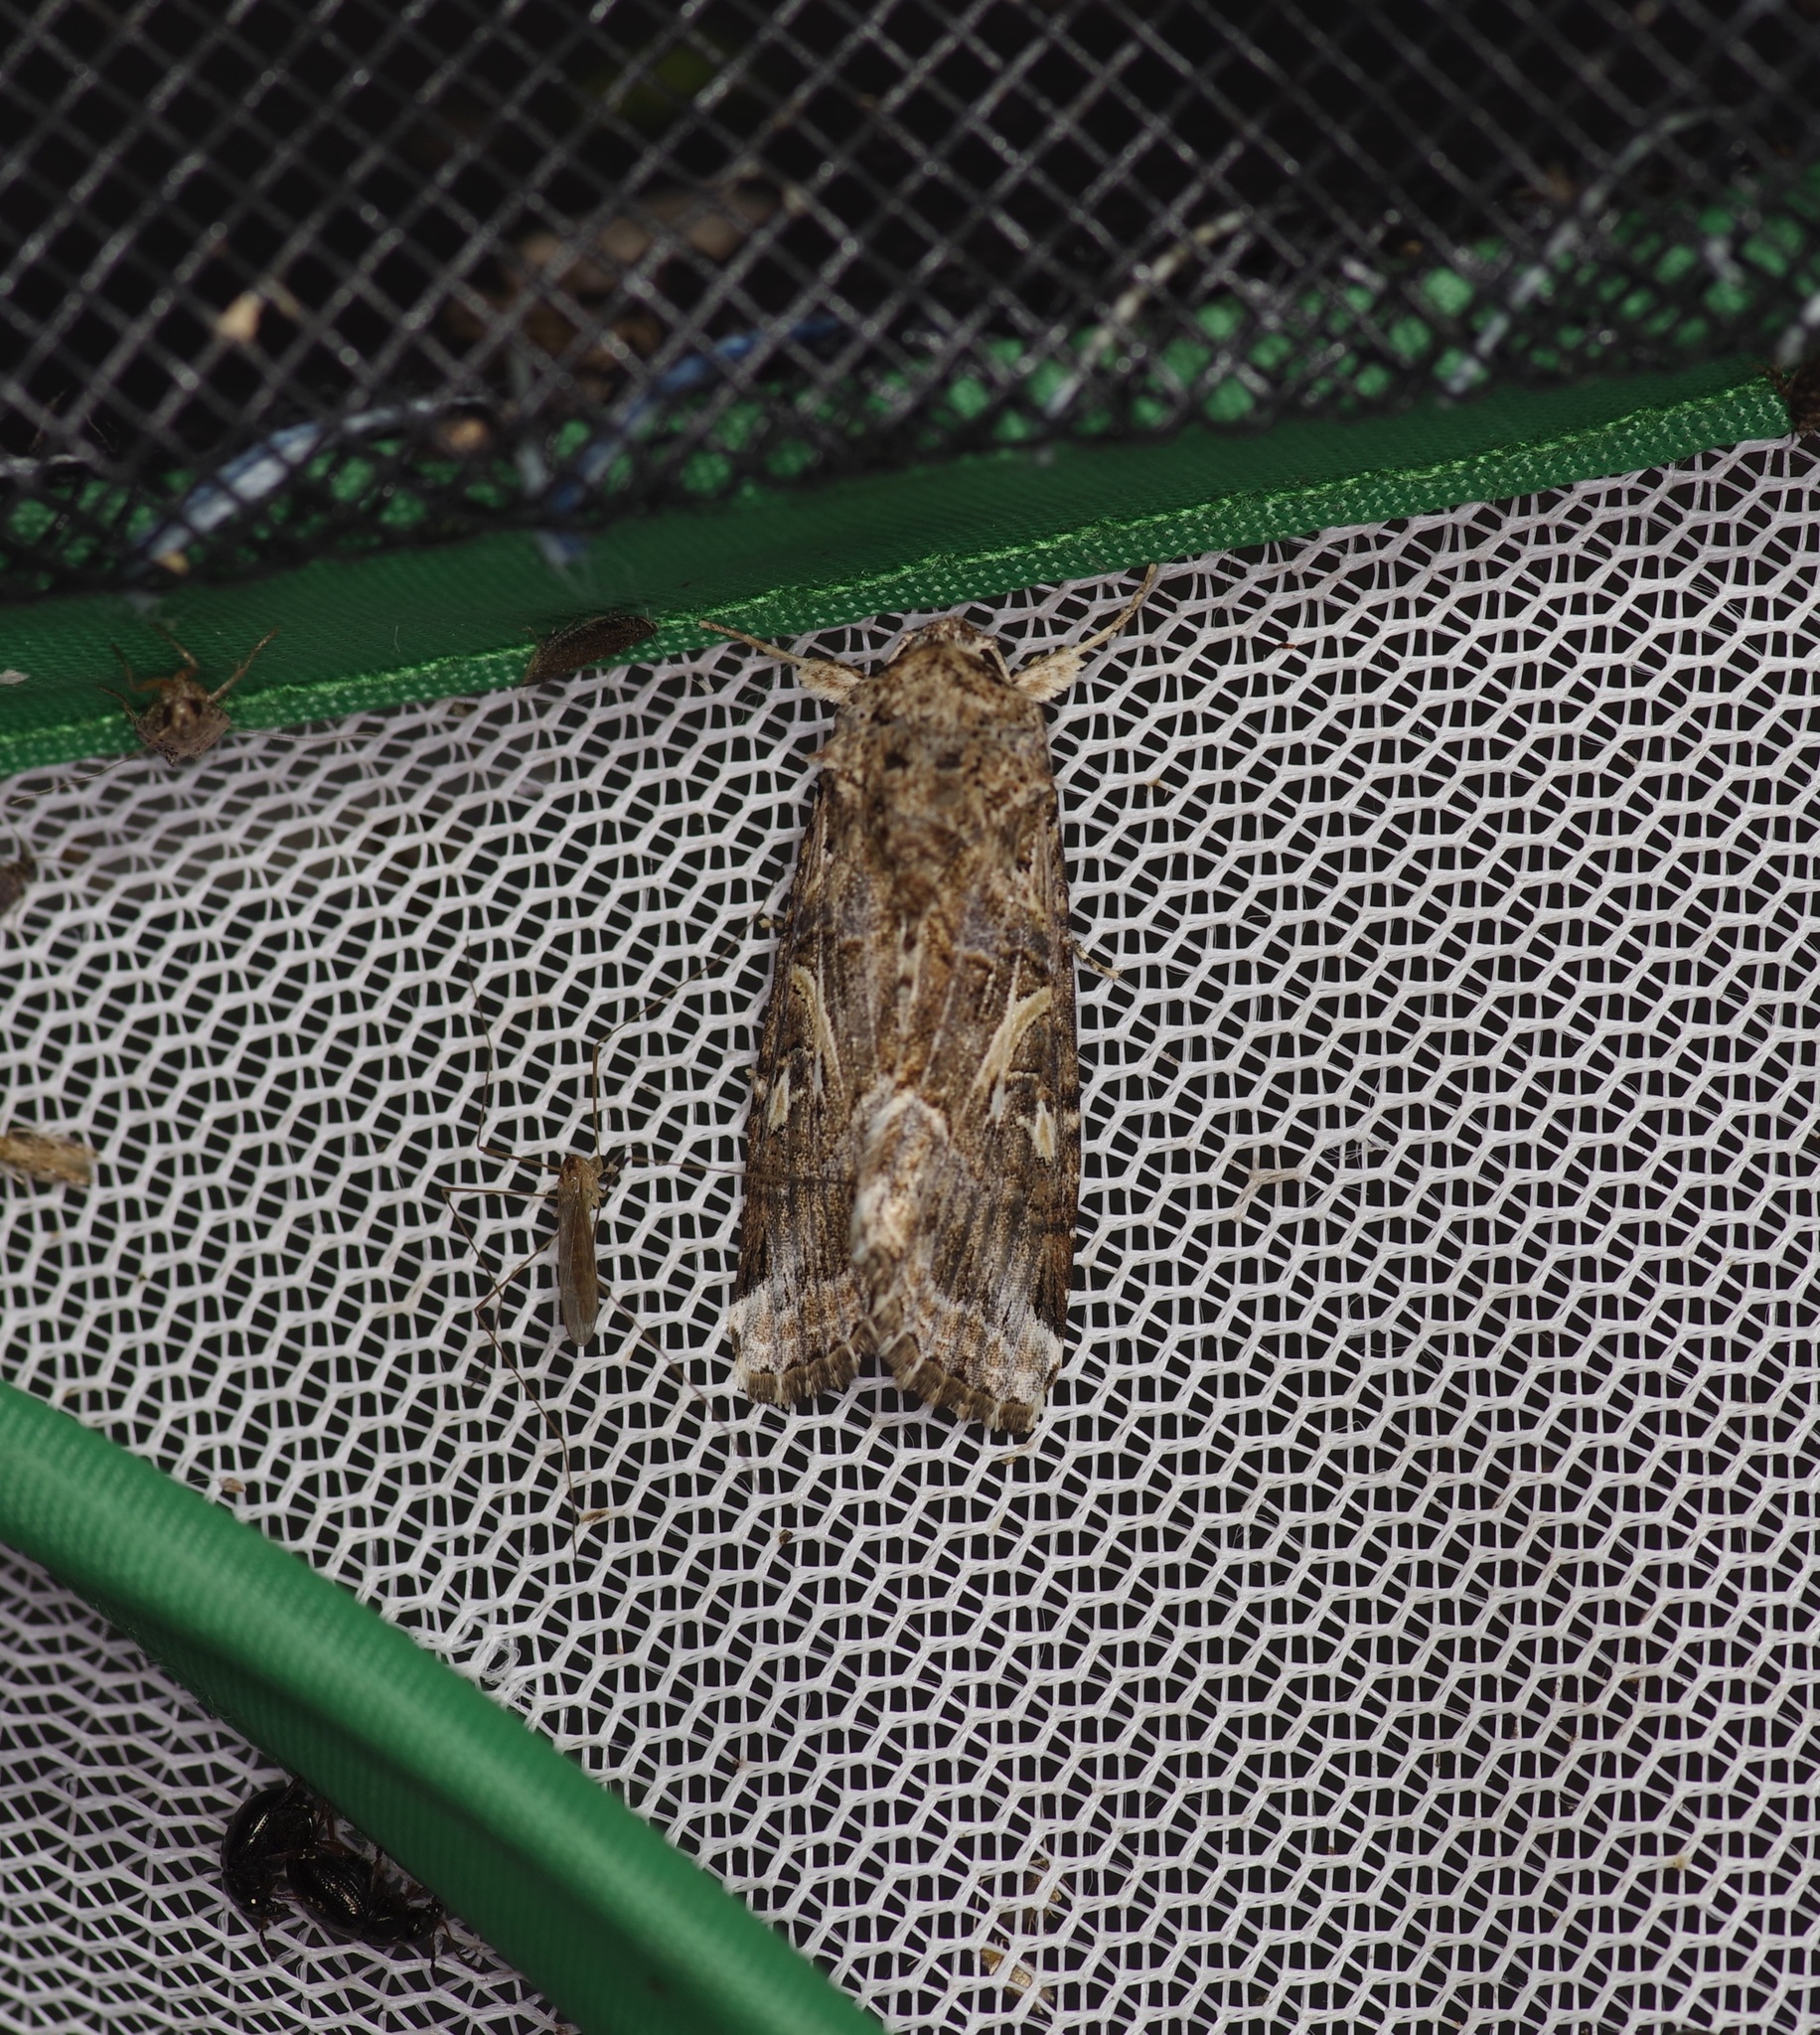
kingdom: Animalia
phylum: Arthropoda
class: Insecta
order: Lepidoptera
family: Noctuidae
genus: Spodoptera
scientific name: Spodoptera ornithogalli
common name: Yellow-striped armyworm
